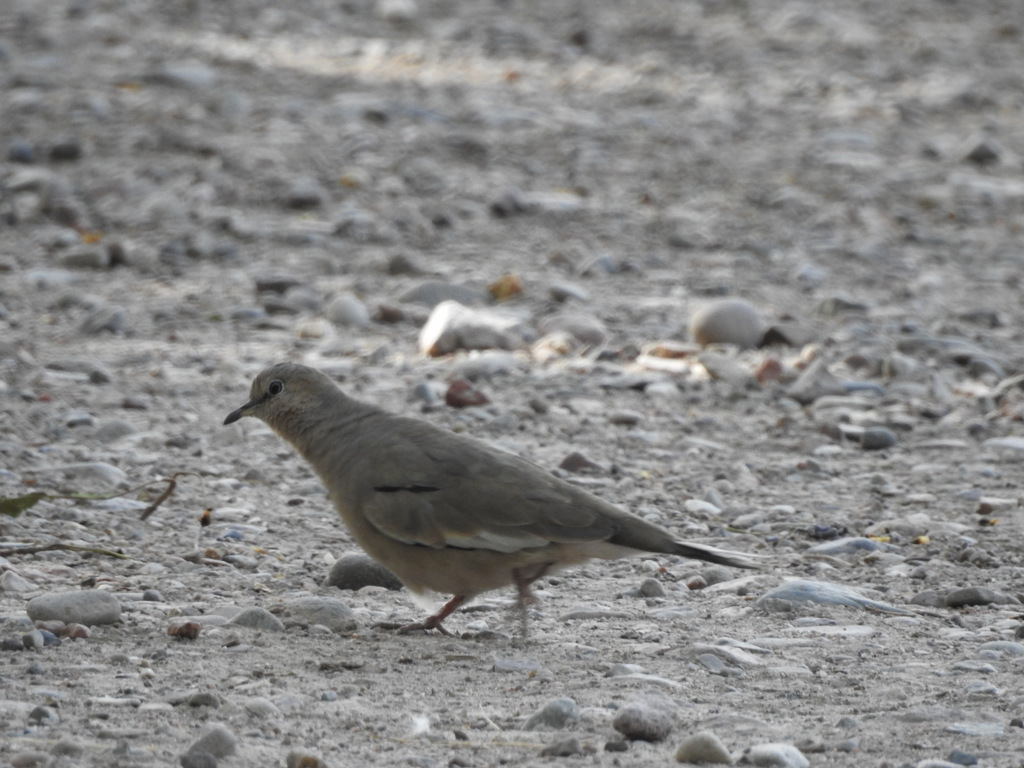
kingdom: Animalia
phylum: Chordata
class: Aves
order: Columbiformes
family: Columbidae
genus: Columbina
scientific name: Columbina picui
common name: Picui ground dove
